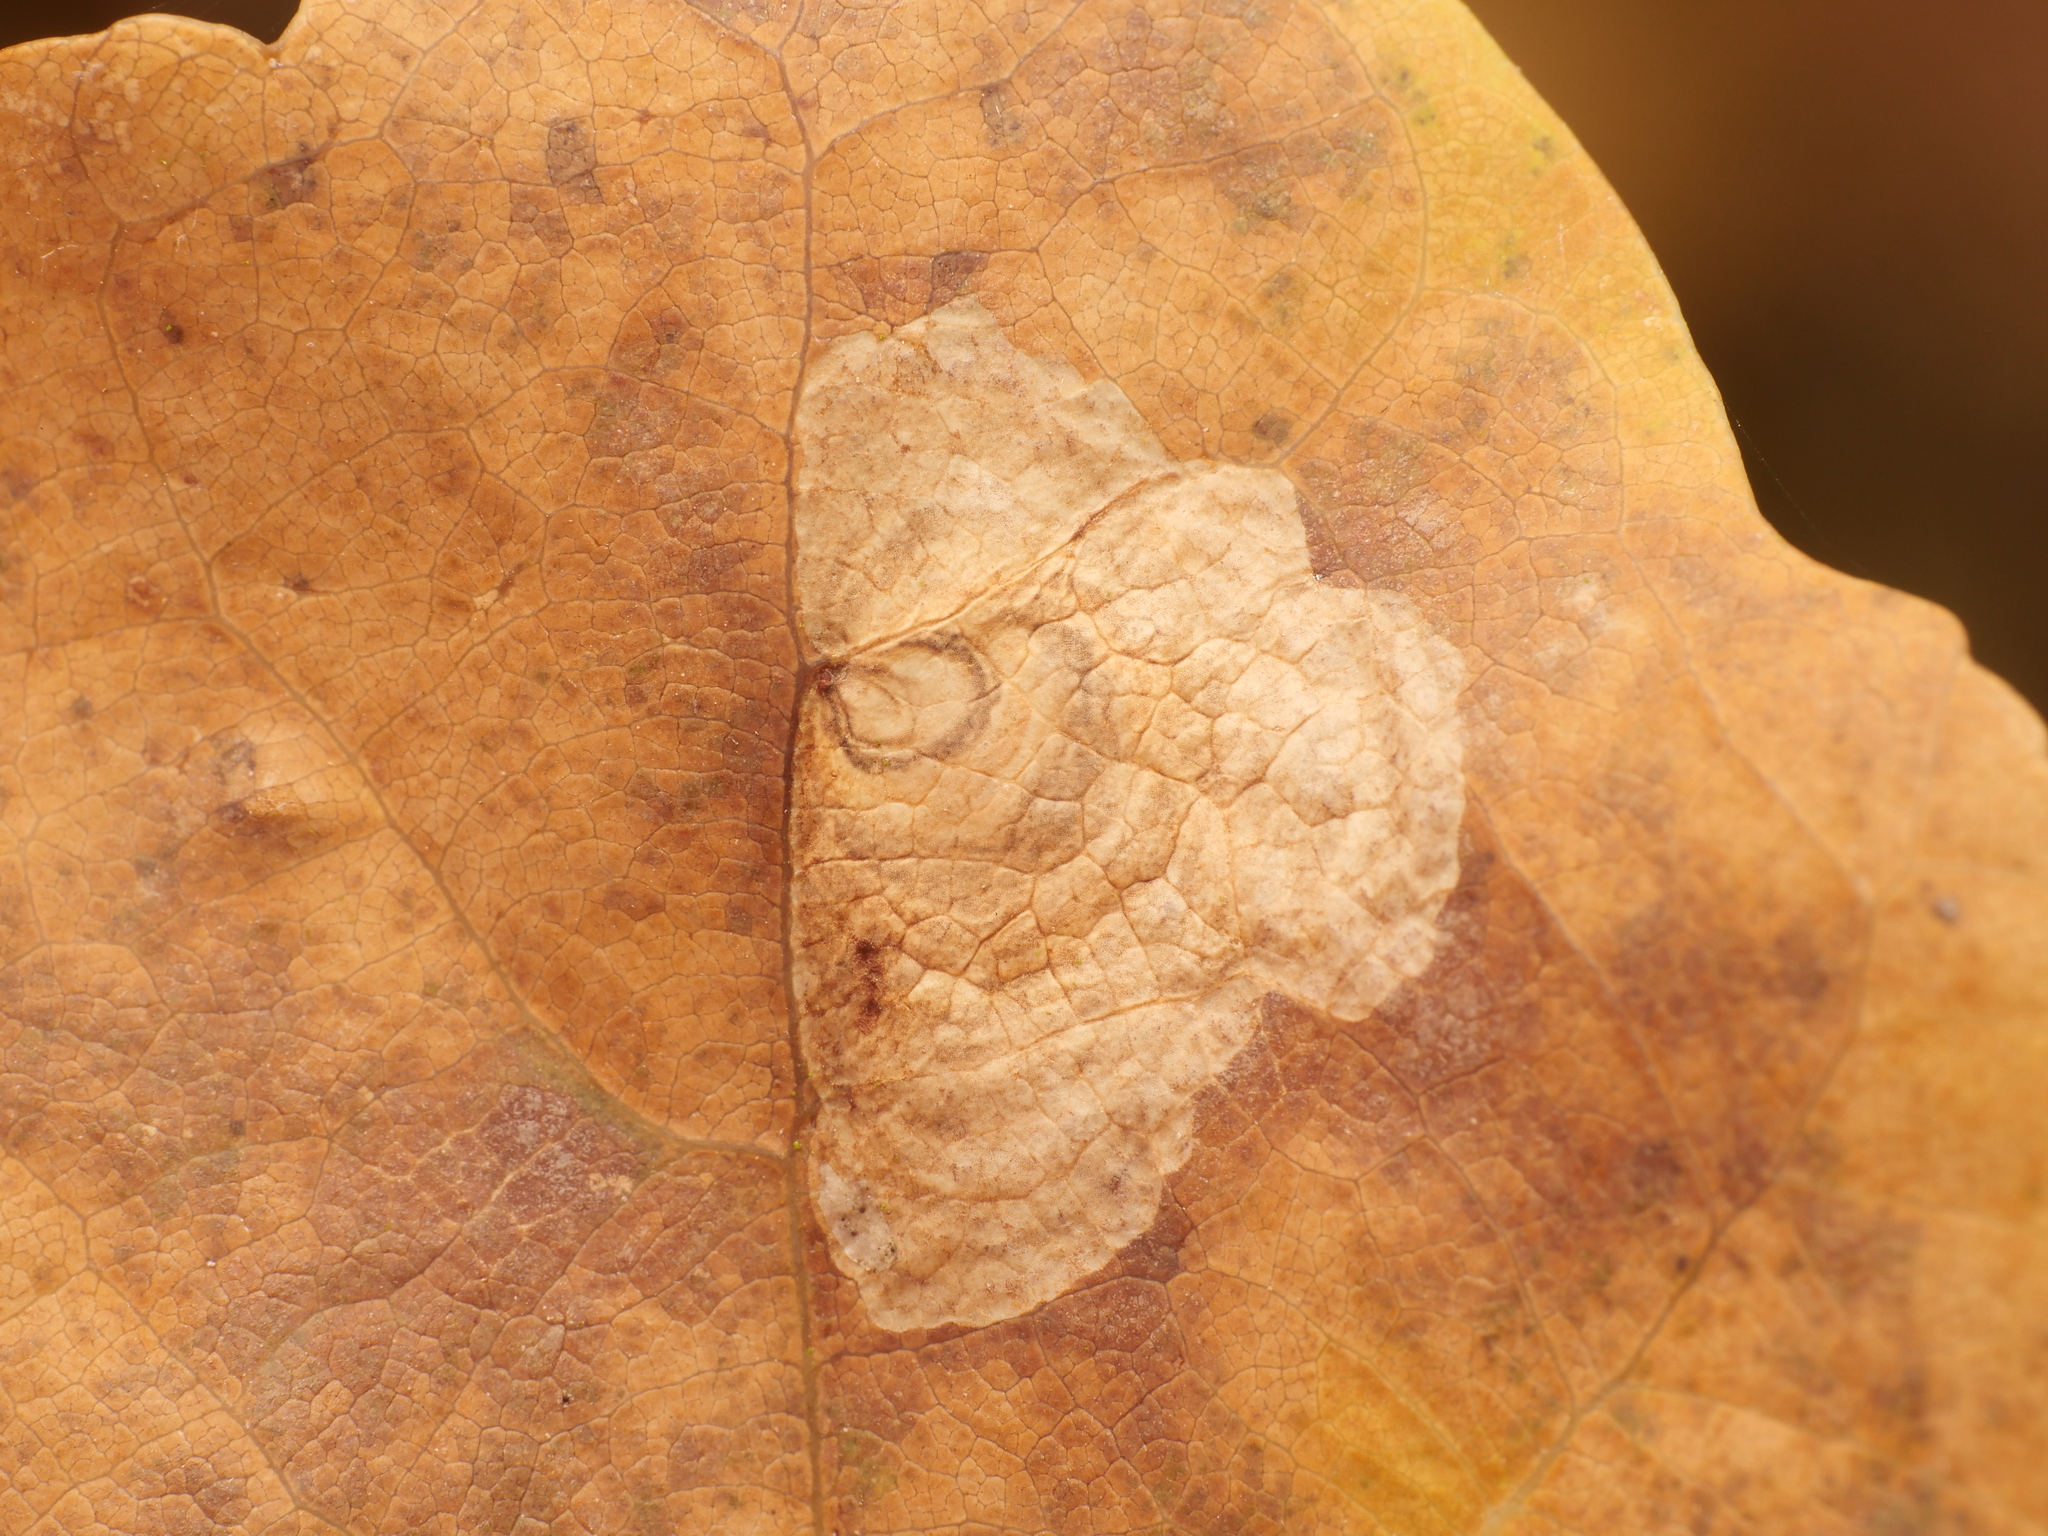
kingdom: Animalia
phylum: Arthropoda
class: Insecta
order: Lepidoptera
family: Tischeriidae
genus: Tischeria
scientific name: Tischeria dodonaea
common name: Small carl
